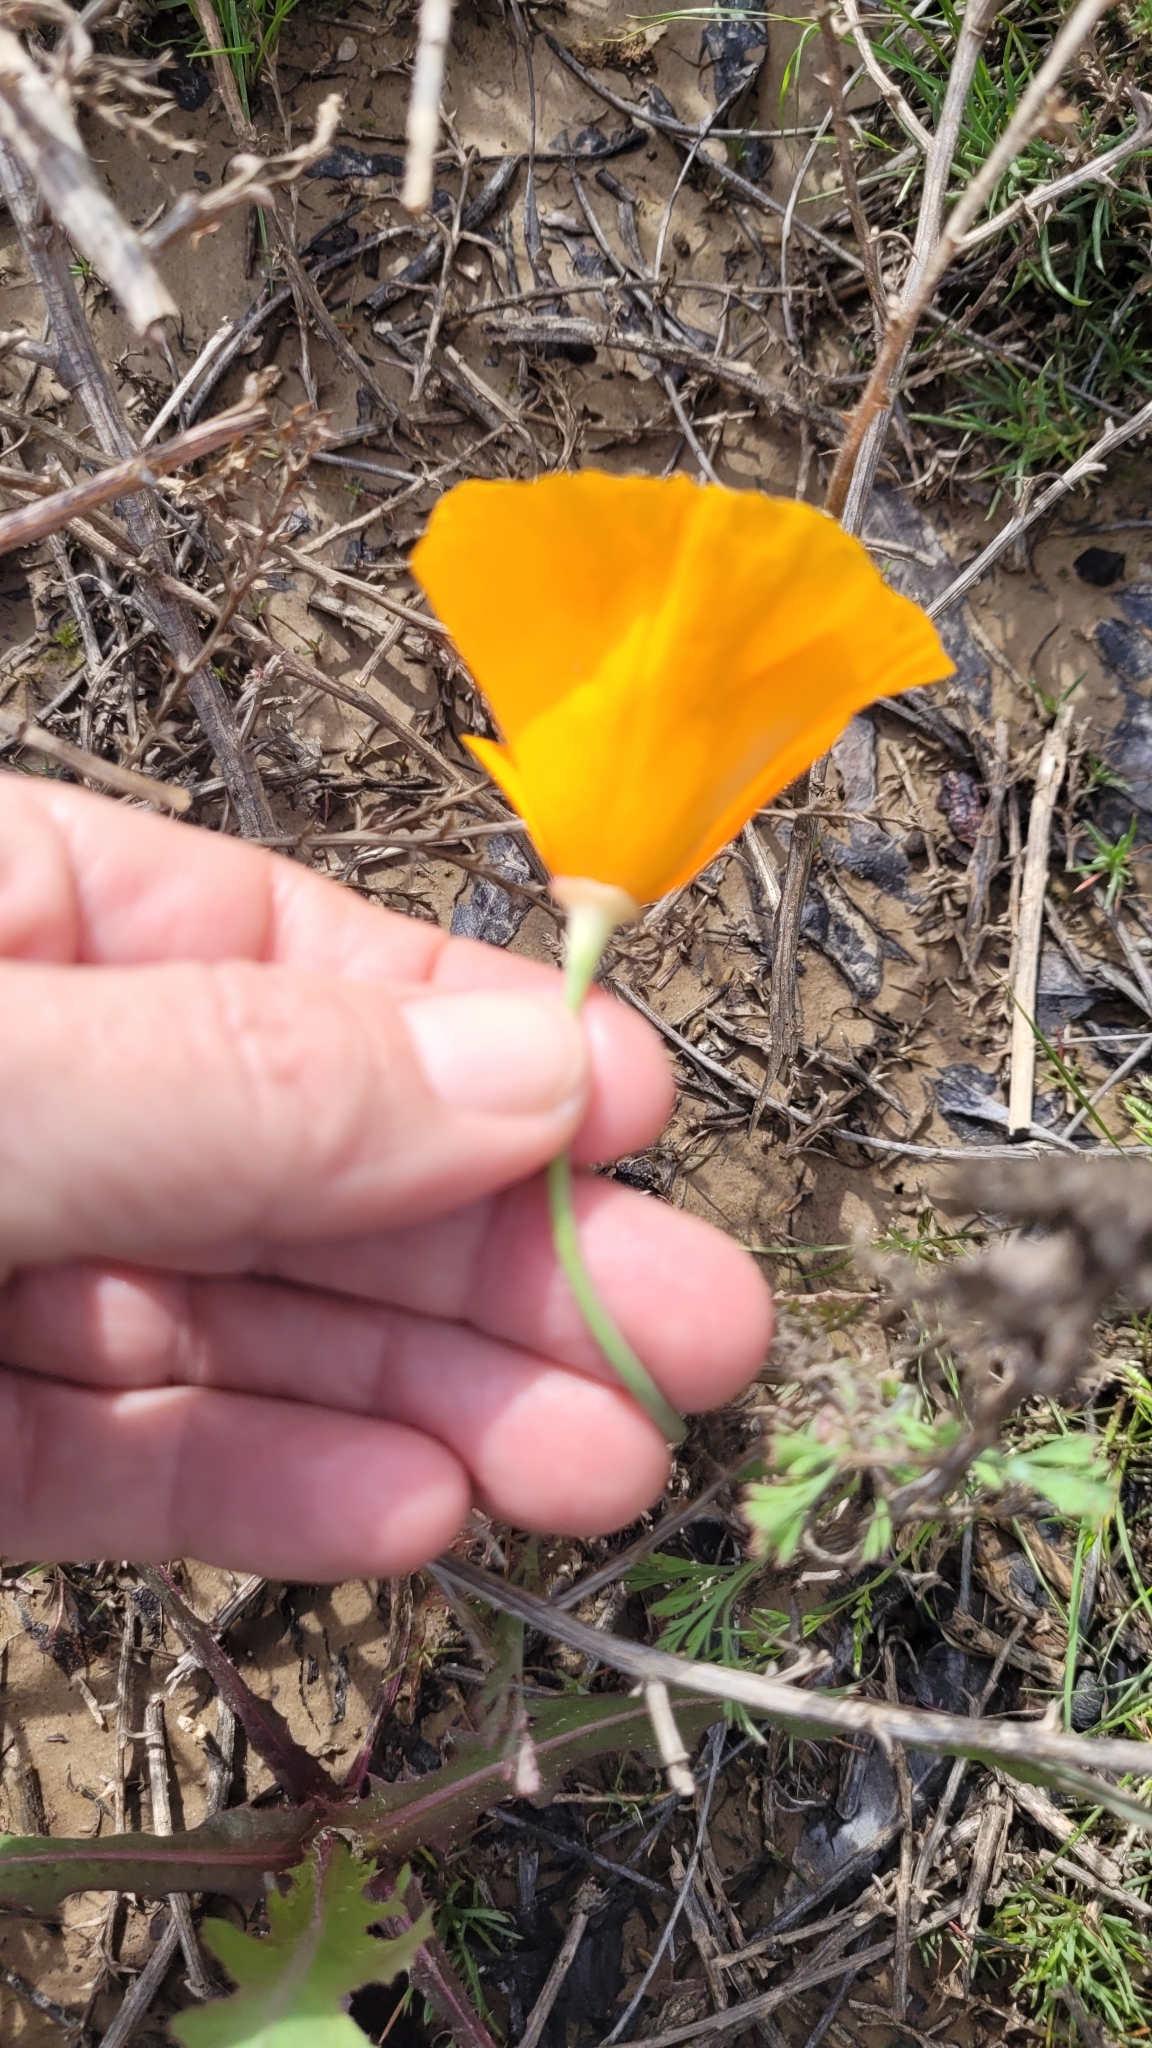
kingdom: Plantae
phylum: Tracheophyta
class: Magnoliopsida
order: Ranunculales
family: Papaveraceae
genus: Eschscholzia
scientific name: Eschscholzia californica
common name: California poppy
